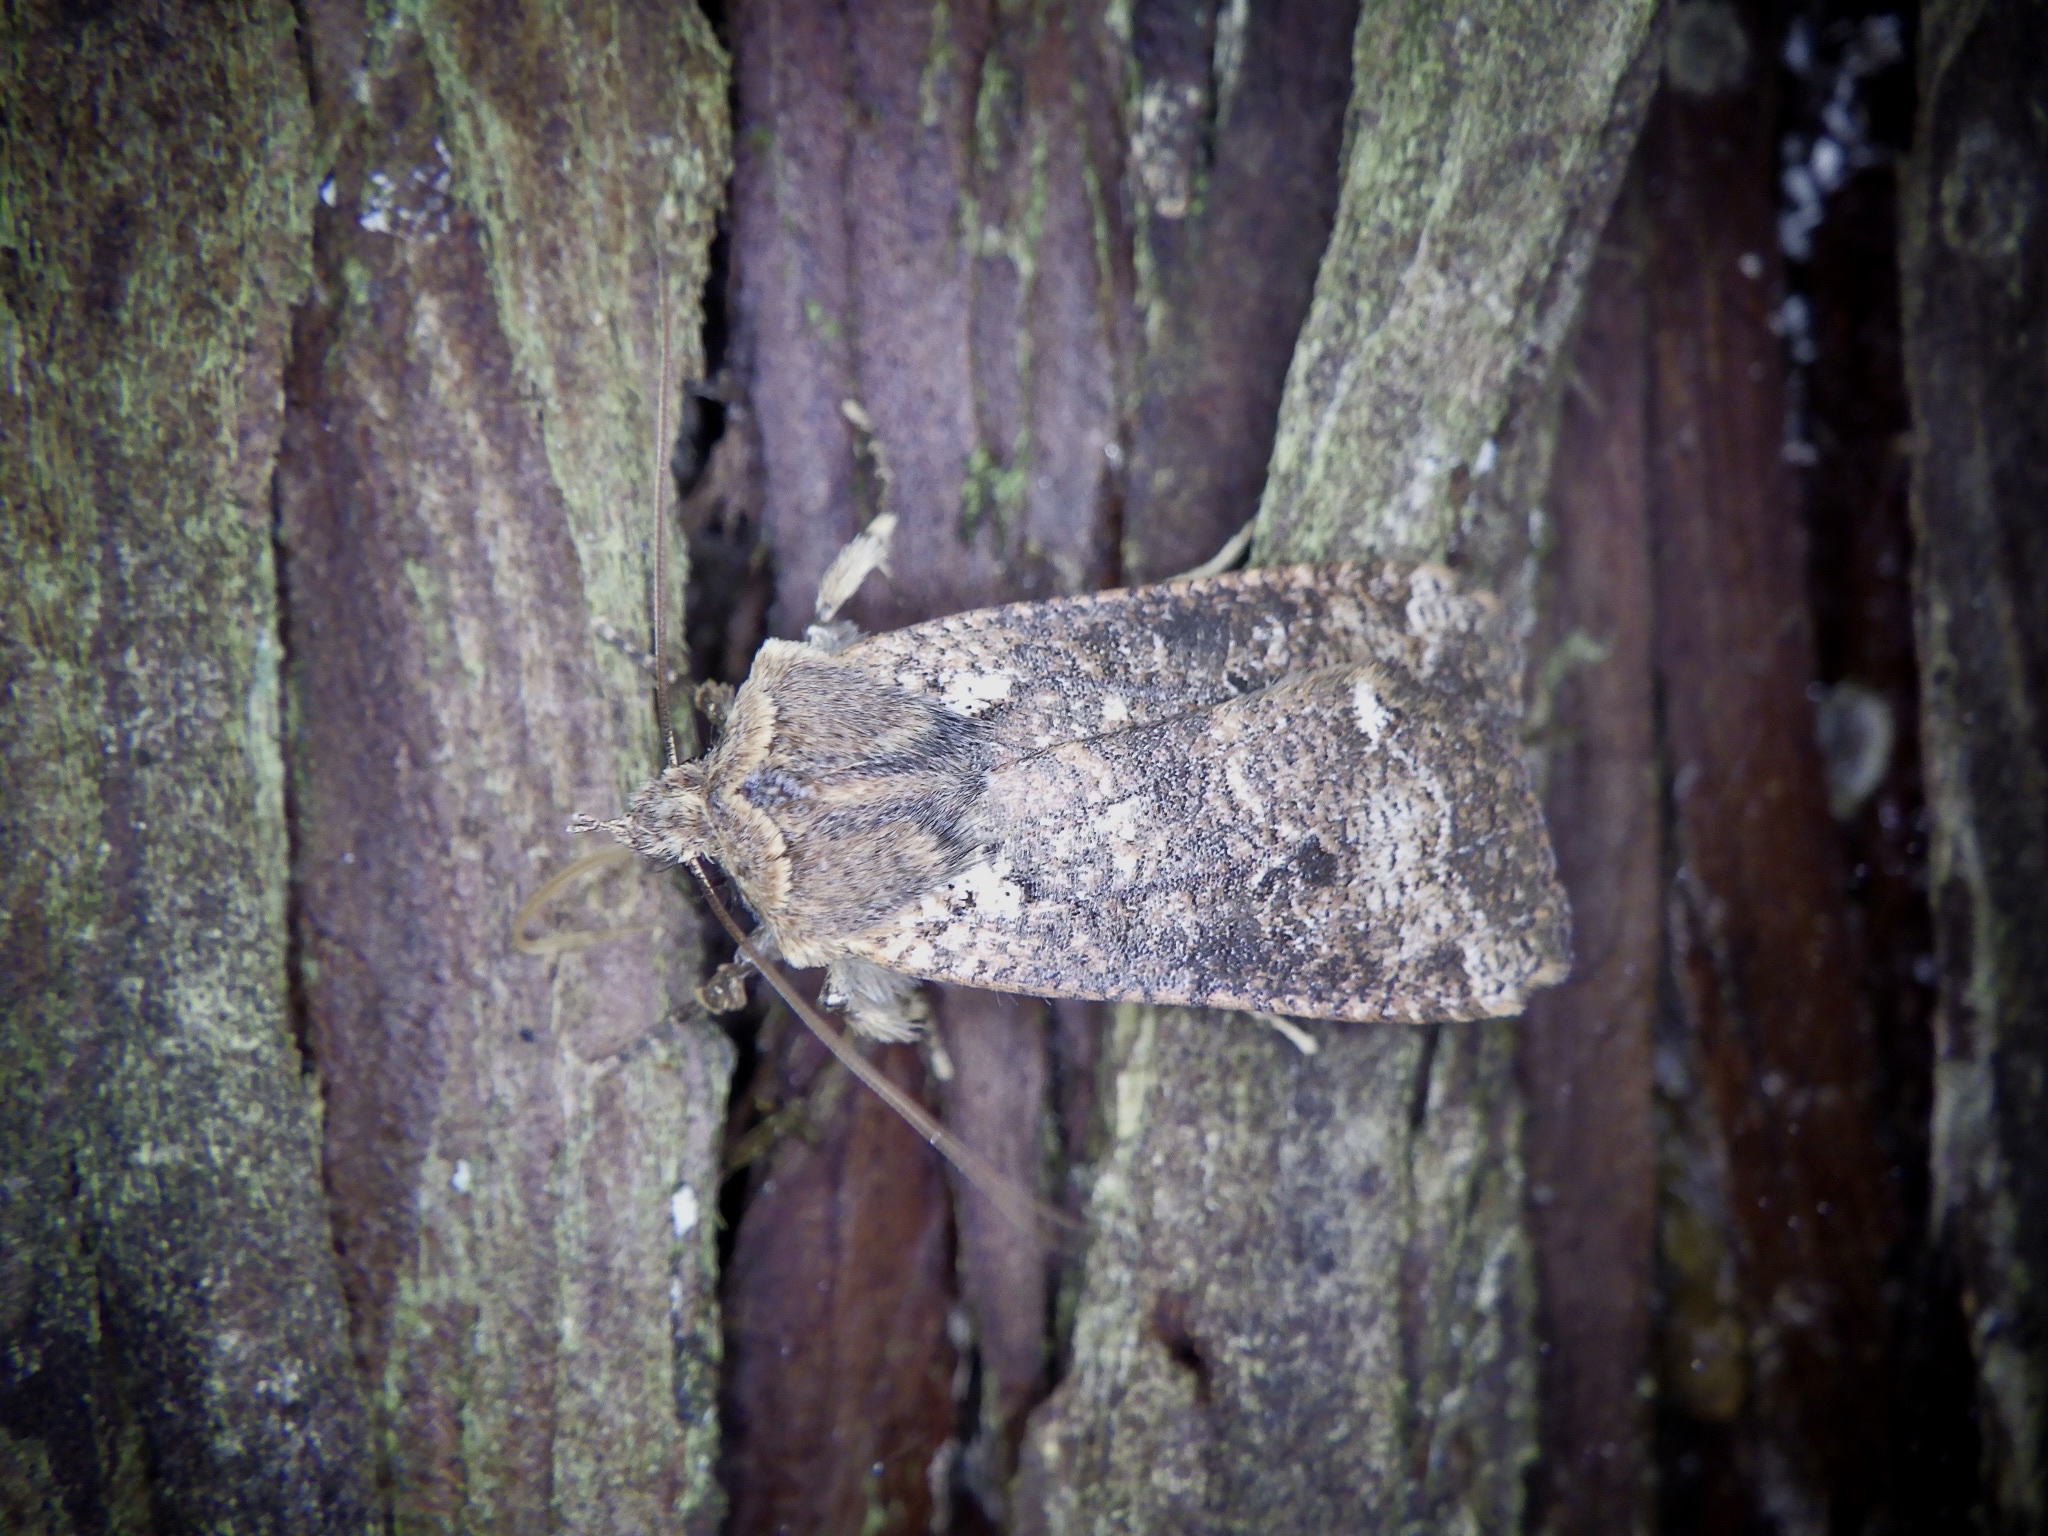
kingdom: Animalia
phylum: Arthropoda
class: Insecta
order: Lepidoptera
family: Noctuidae
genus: Rhynchaglaea
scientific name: Rhynchaglaea fuscipennis
